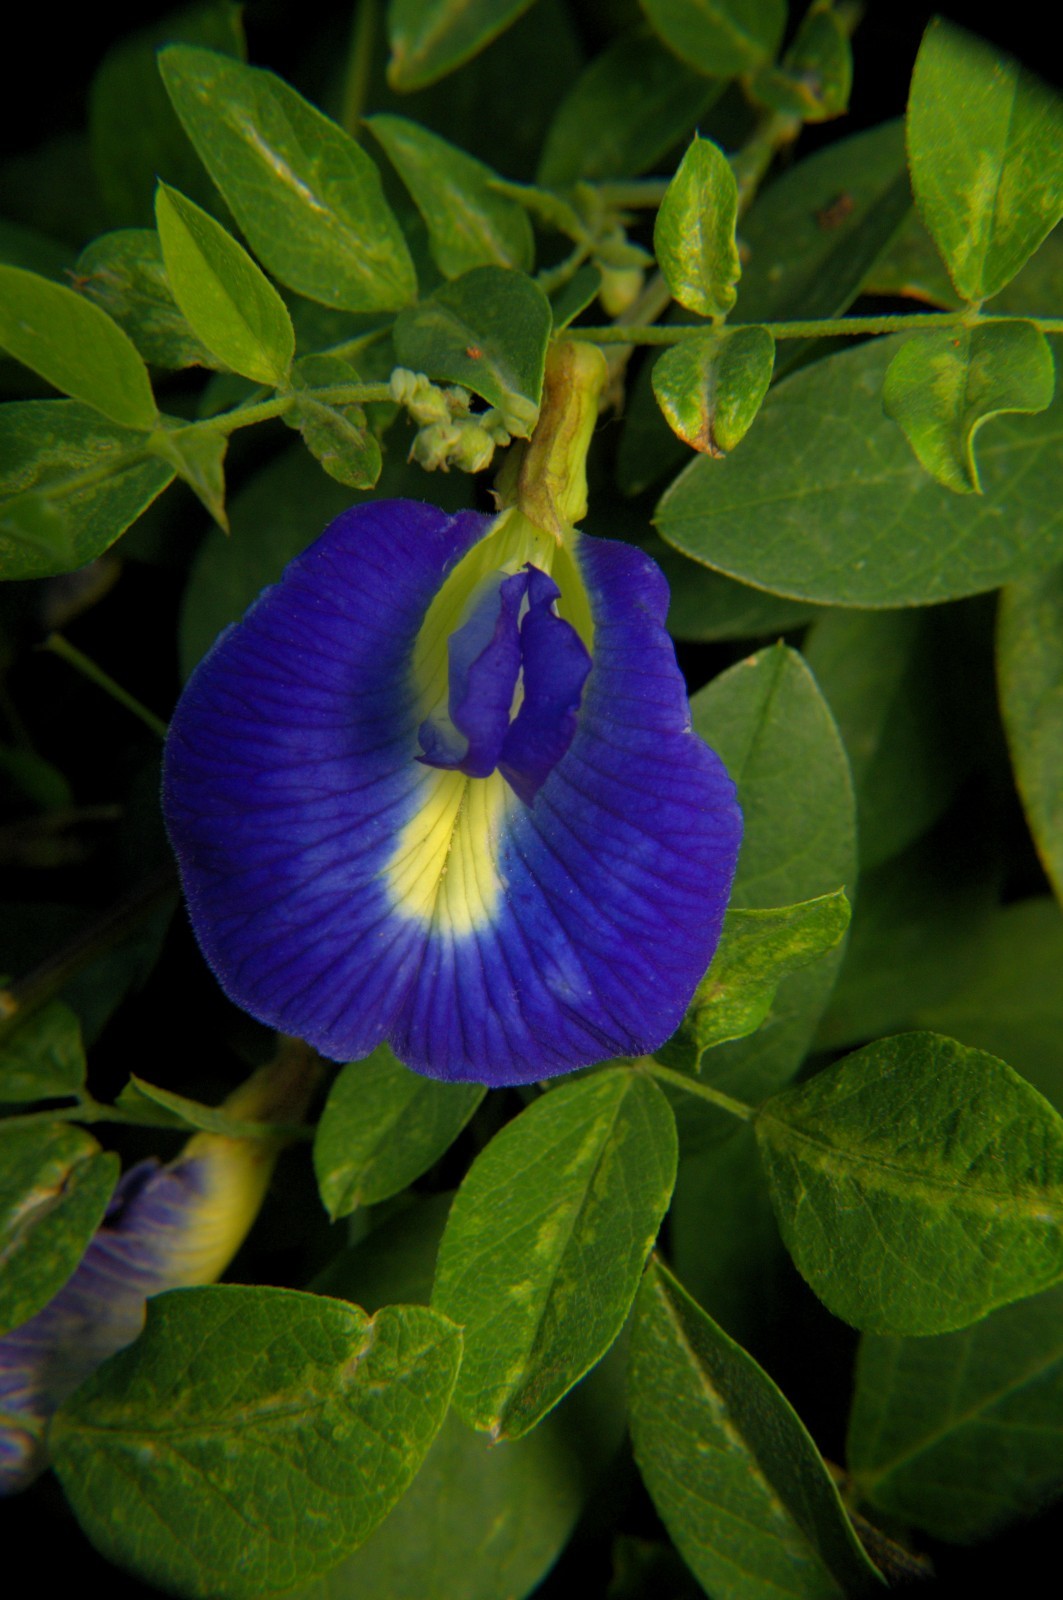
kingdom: Plantae
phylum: Tracheophyta
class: Magnoliopsida
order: Fabales
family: Fabaceae
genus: Clitoria
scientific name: Clitoria ternatea
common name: Asian pigeonwings
